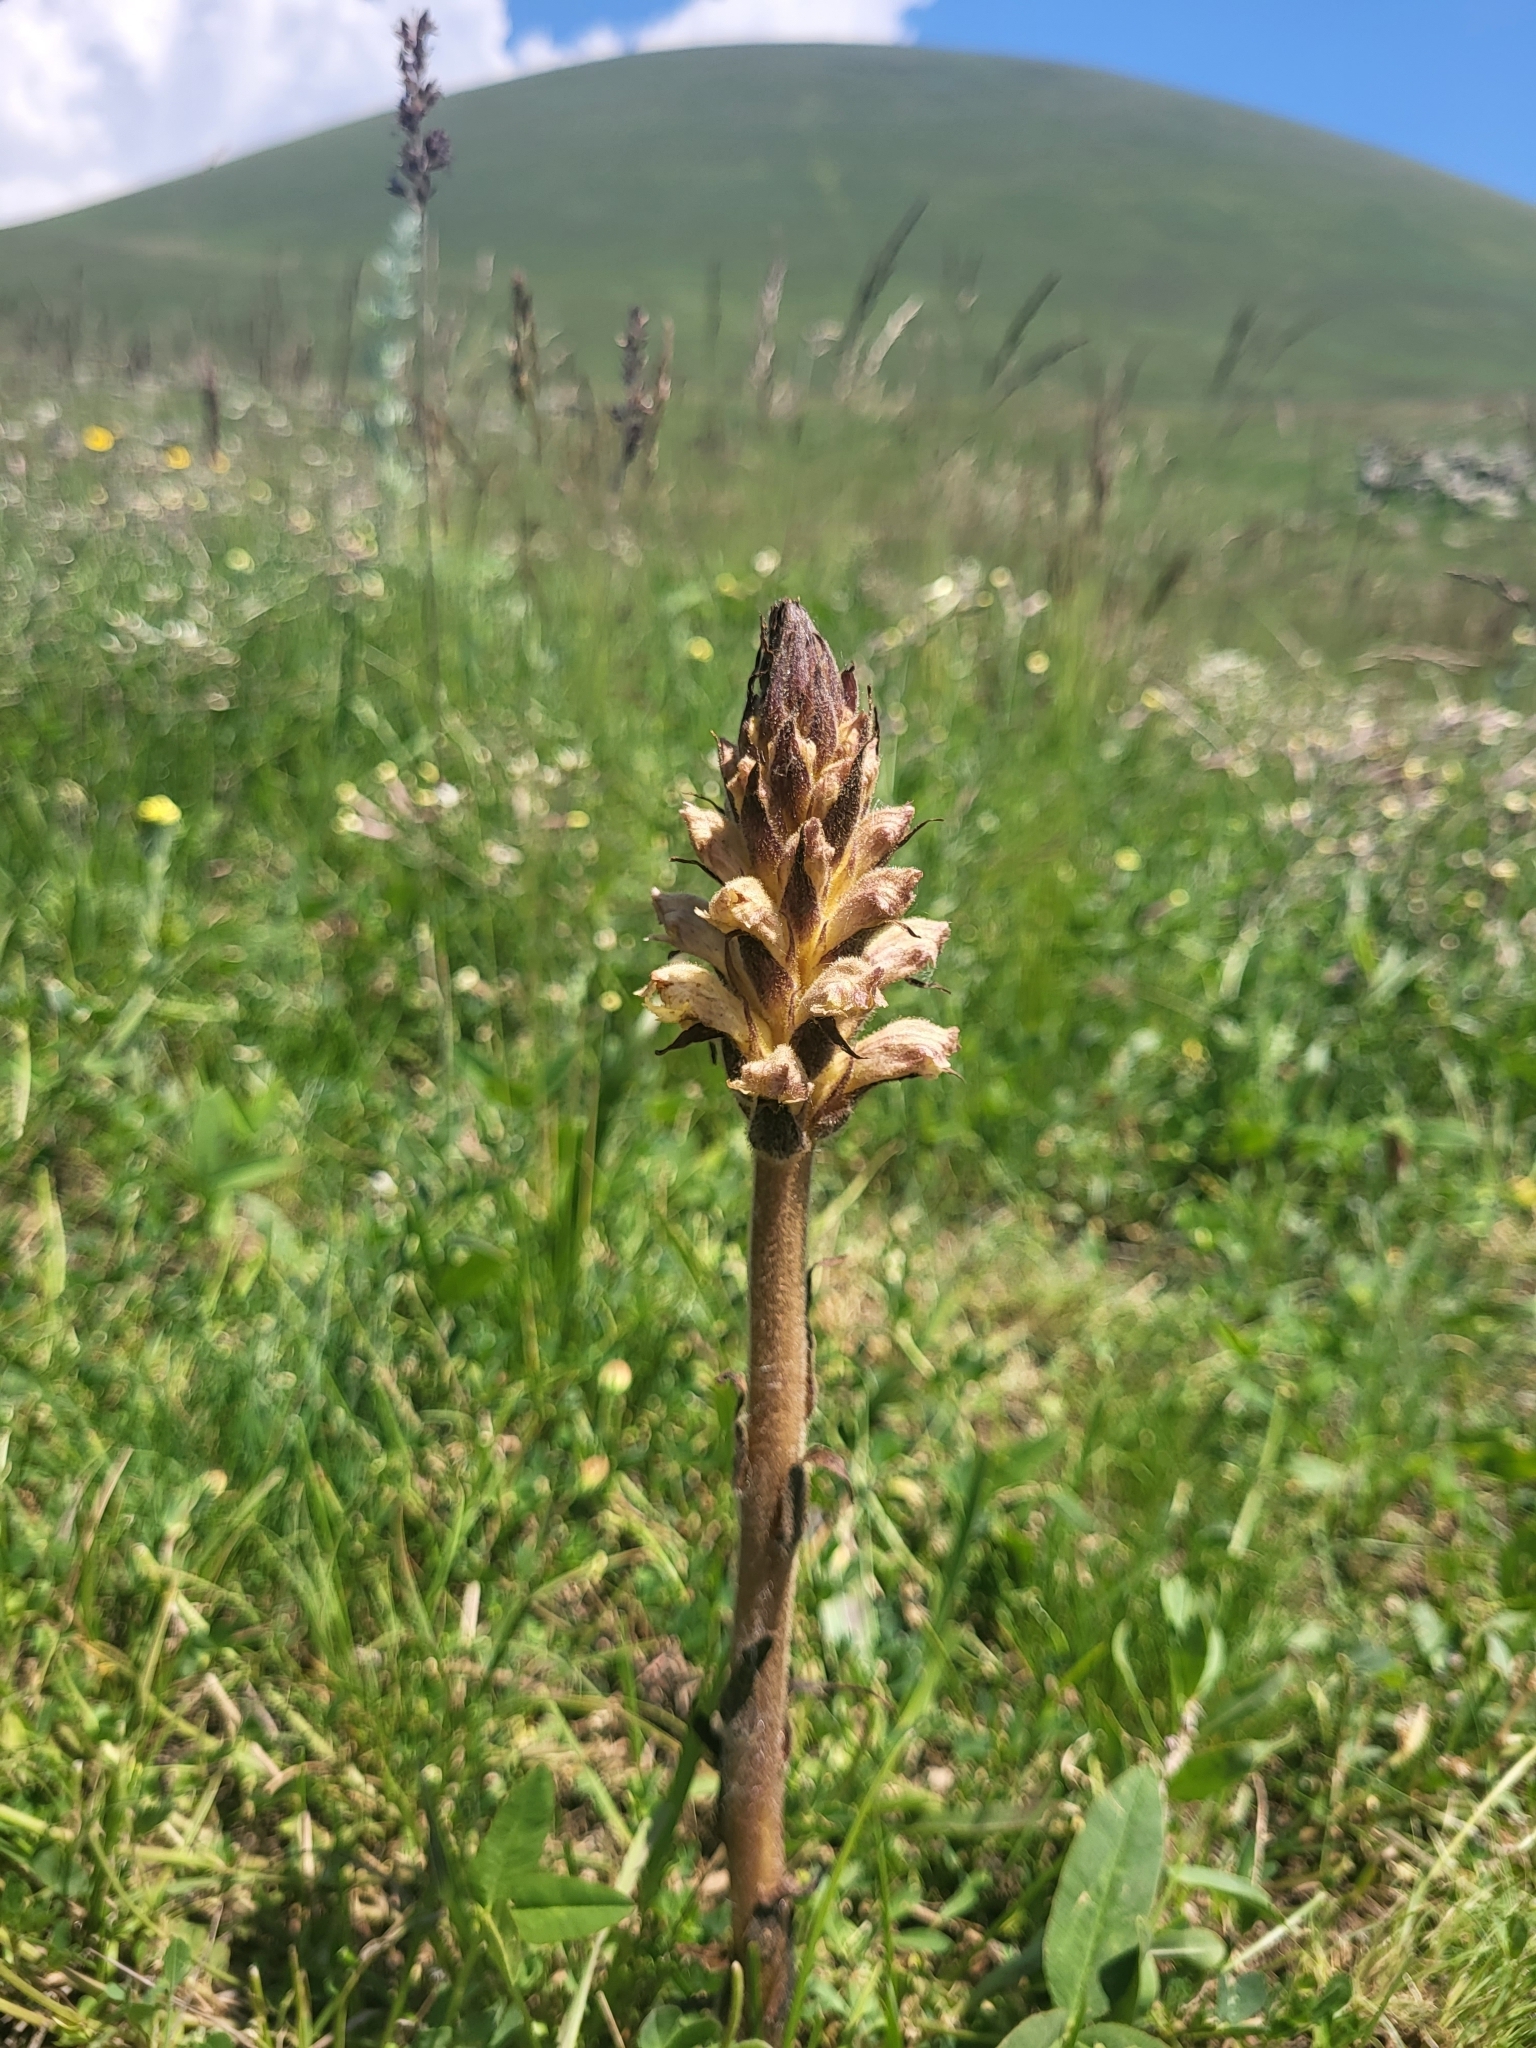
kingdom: Plantae
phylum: Tracheophyta
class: Magnoliopsida
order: Lamiales
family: Orobanchaceae
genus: Orobanche
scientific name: Orobanche lutea
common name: Yellow broomrape
